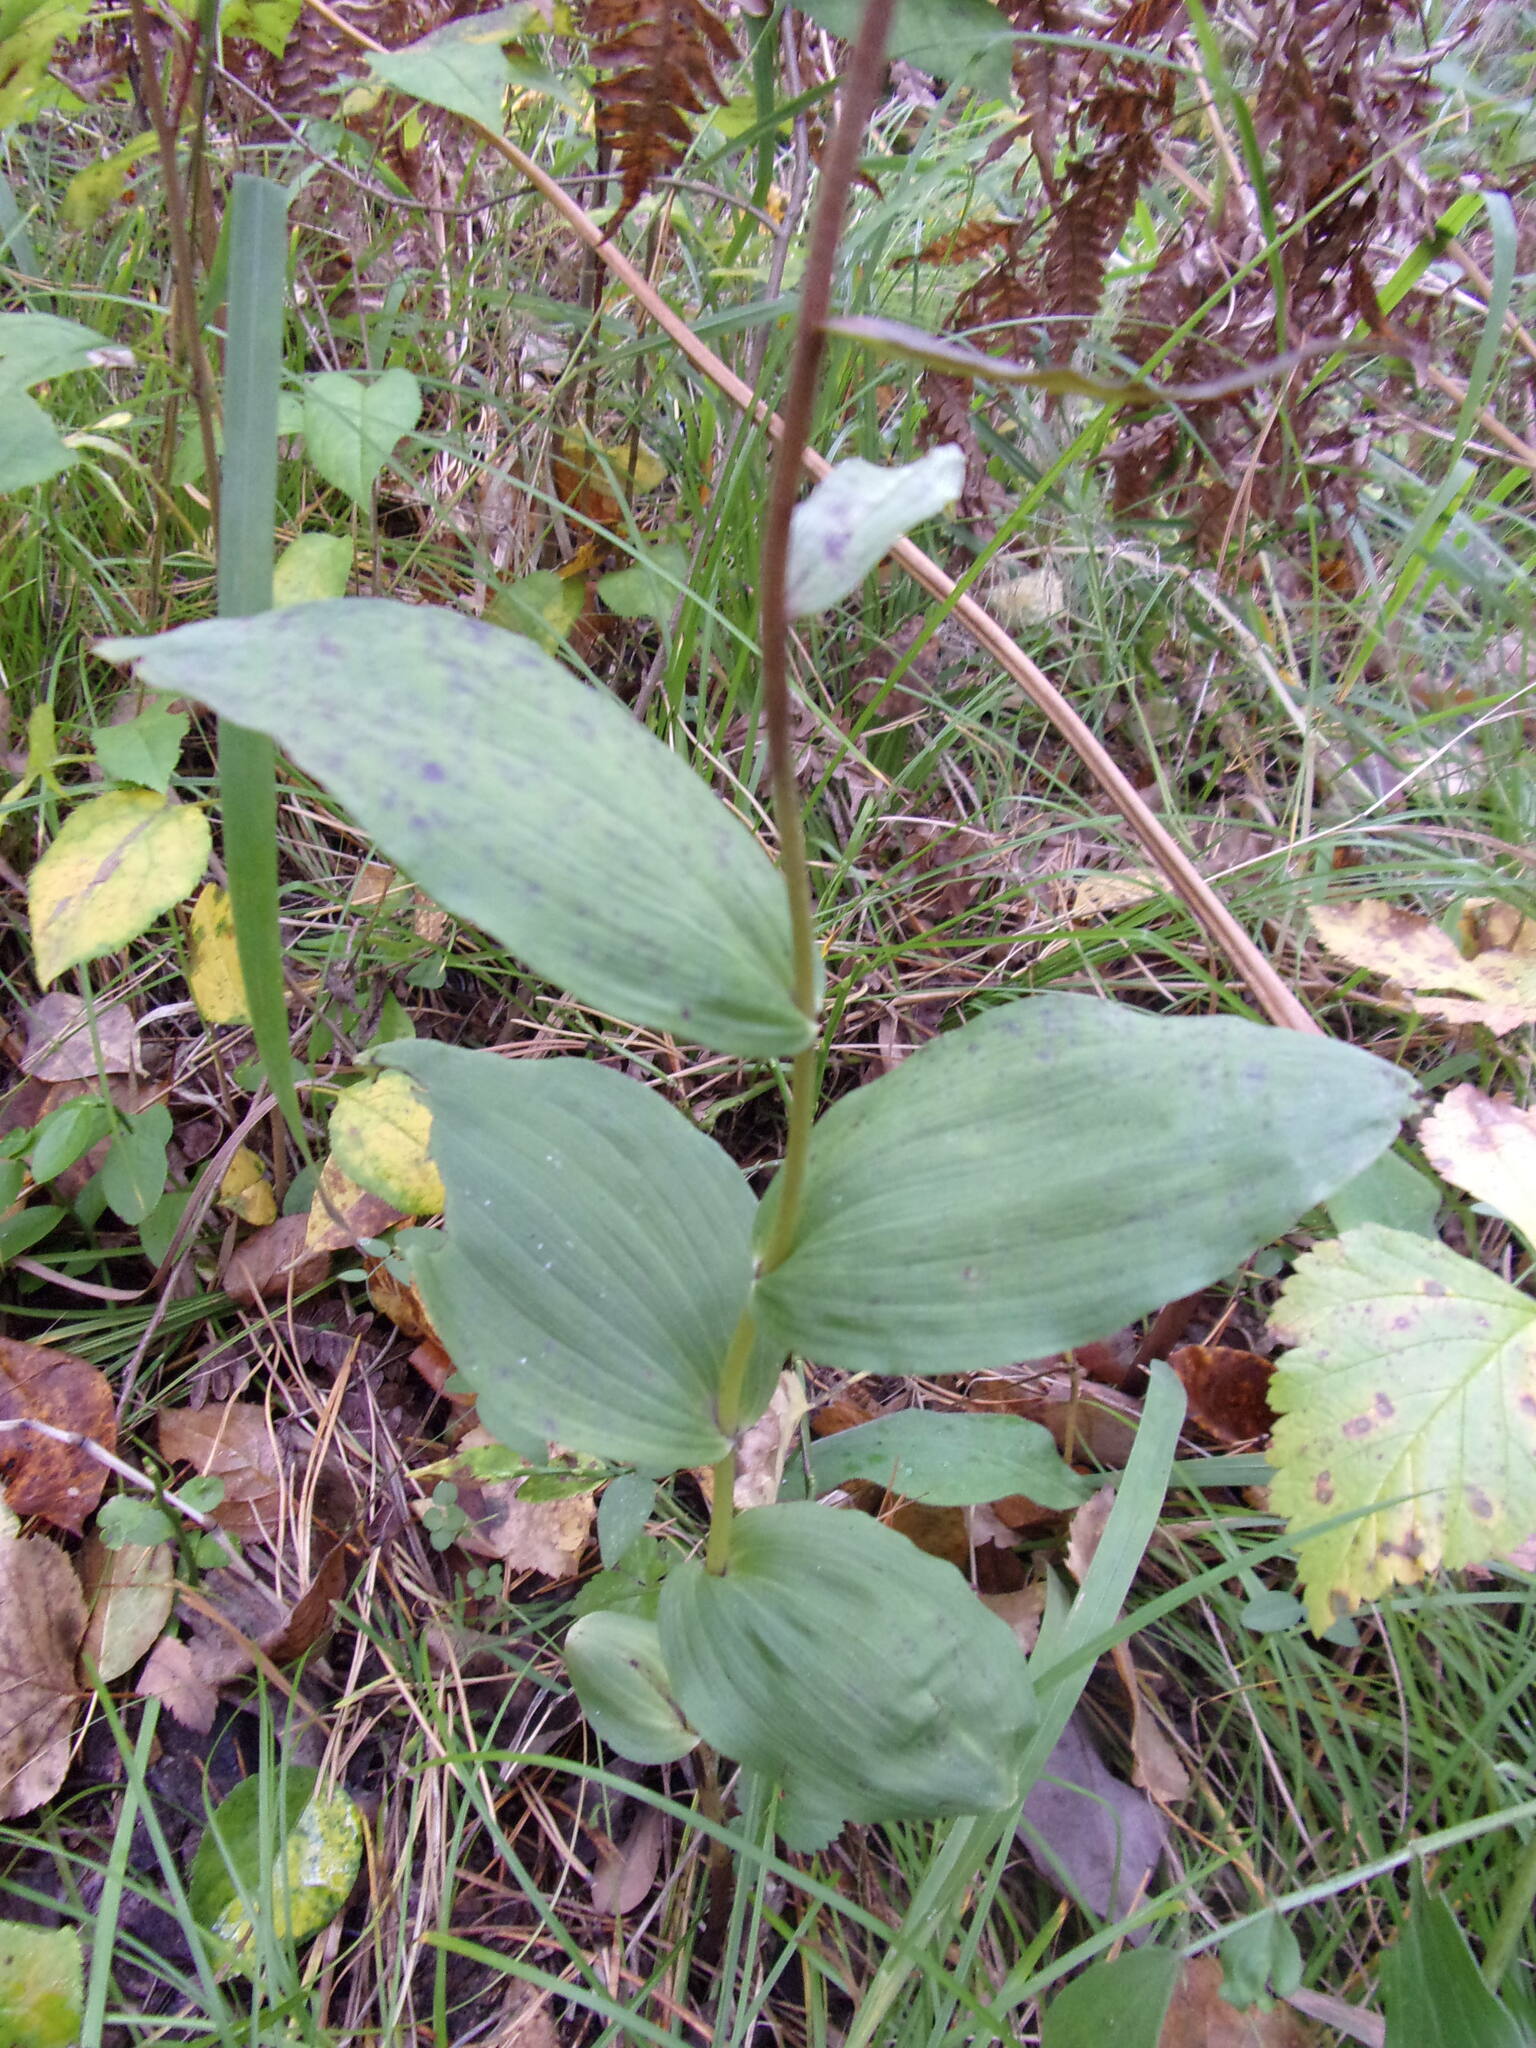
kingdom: Plantae
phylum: Tracheophyta
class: Liliopsida
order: Asparagales
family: Orchidaceae
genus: Epipactis
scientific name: Epipactis helleborine
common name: Broad-leaved helleborine
